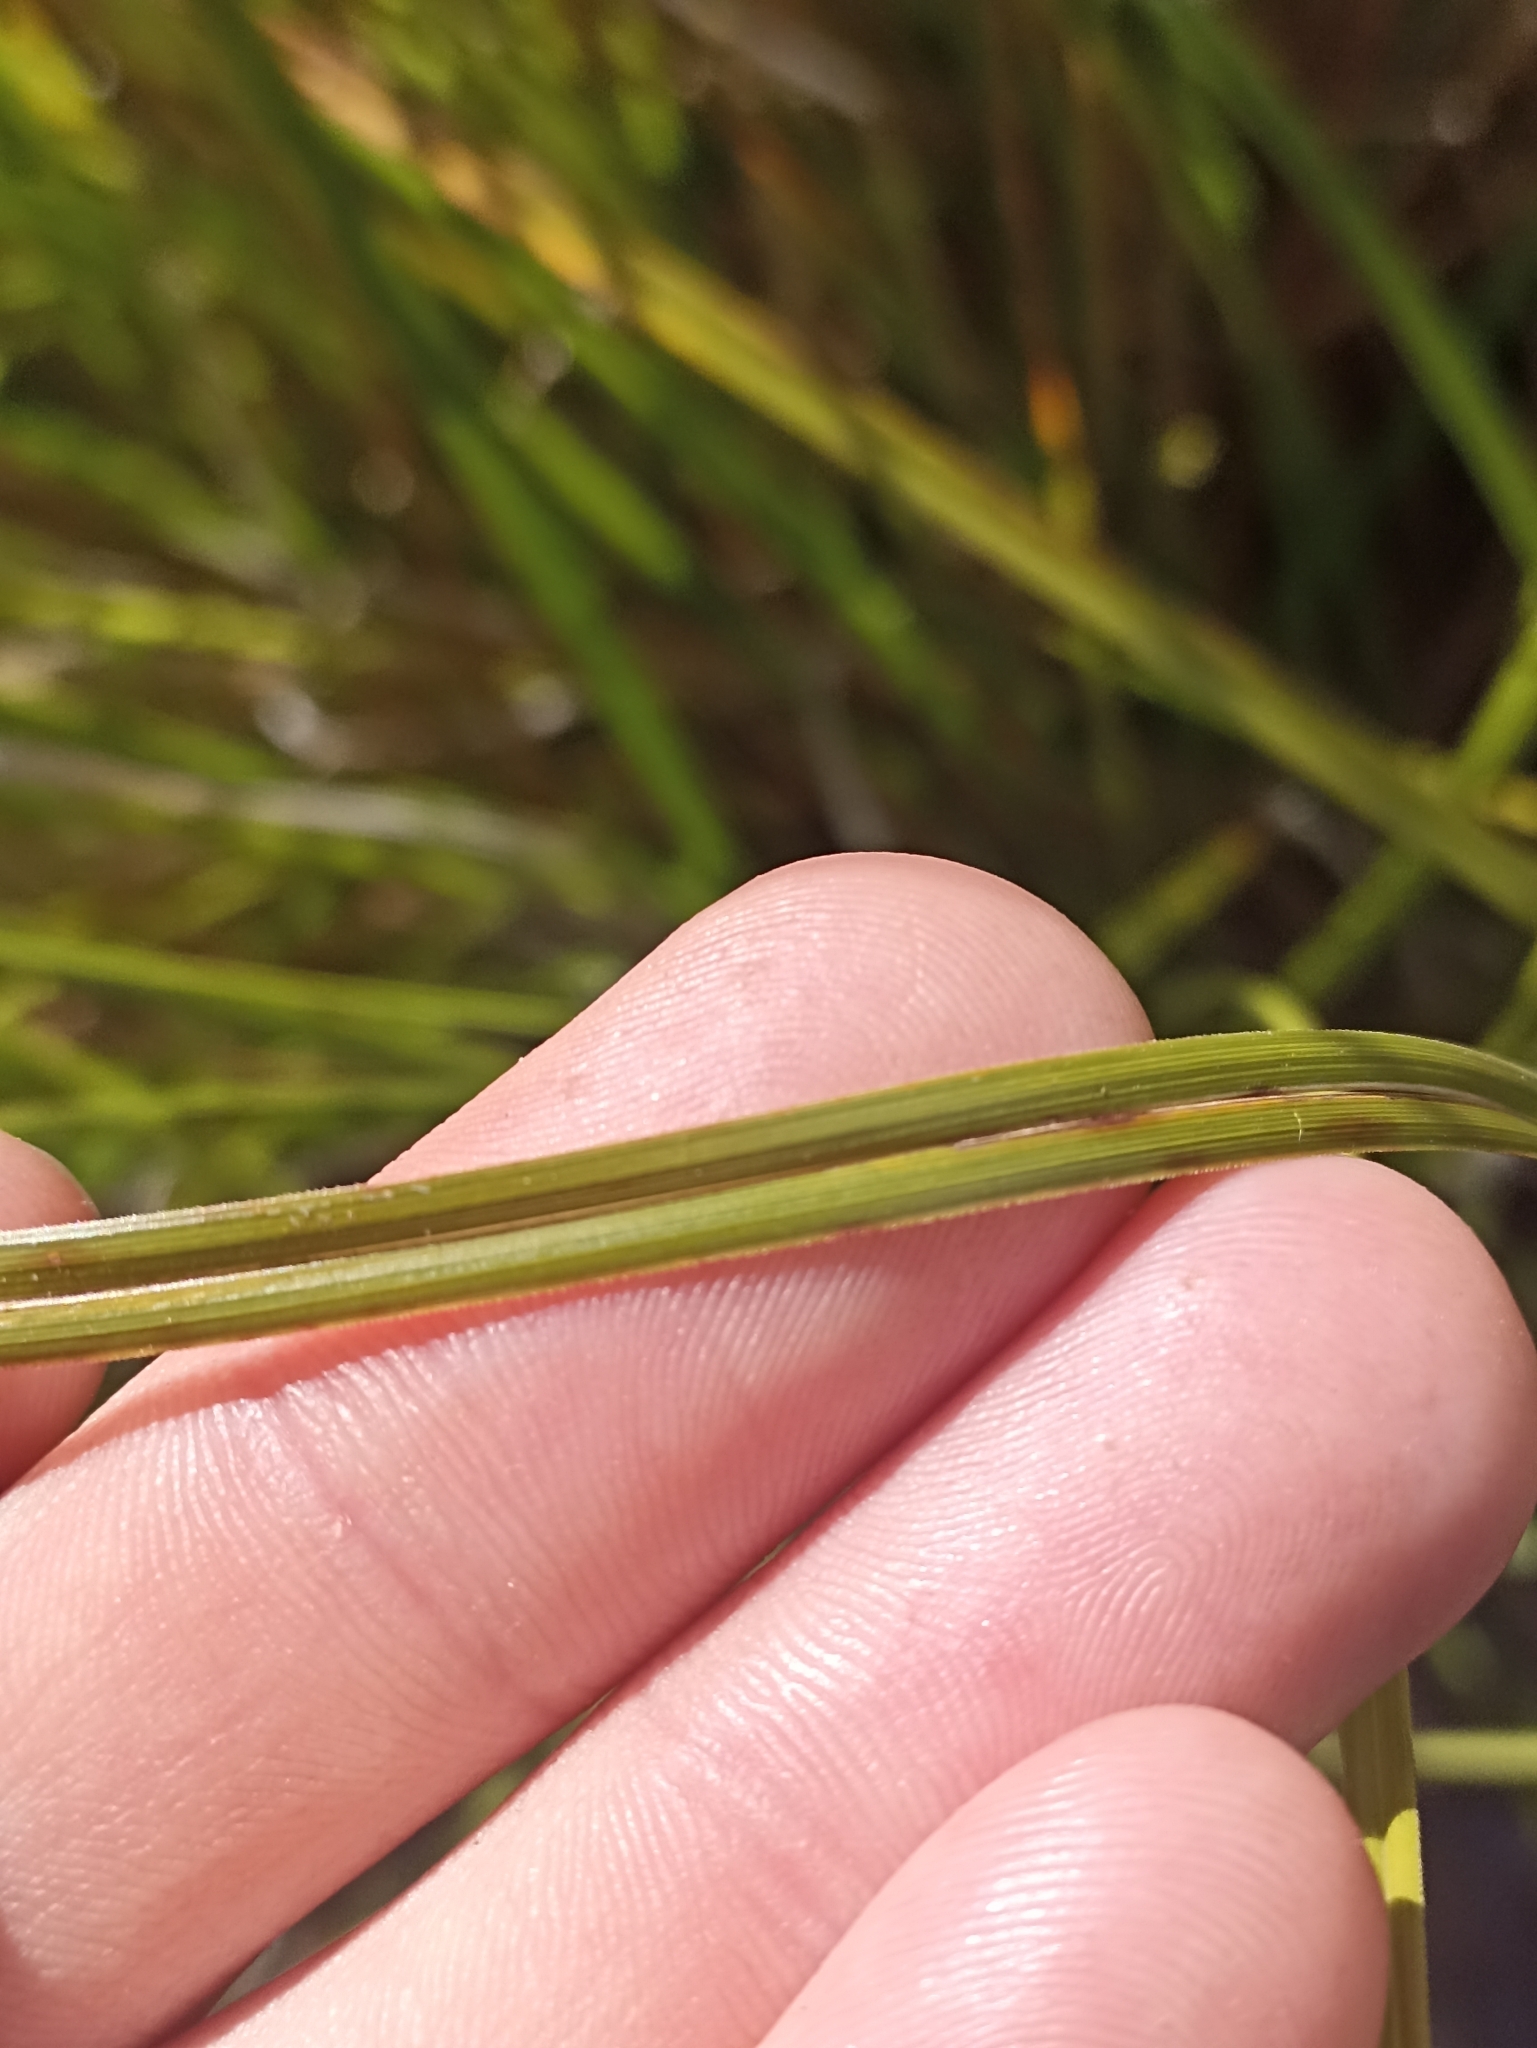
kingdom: Plantae
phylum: Tracheophyta
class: Liliopsida
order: Poales
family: Cyperaceae
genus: Carex
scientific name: Carex secta
